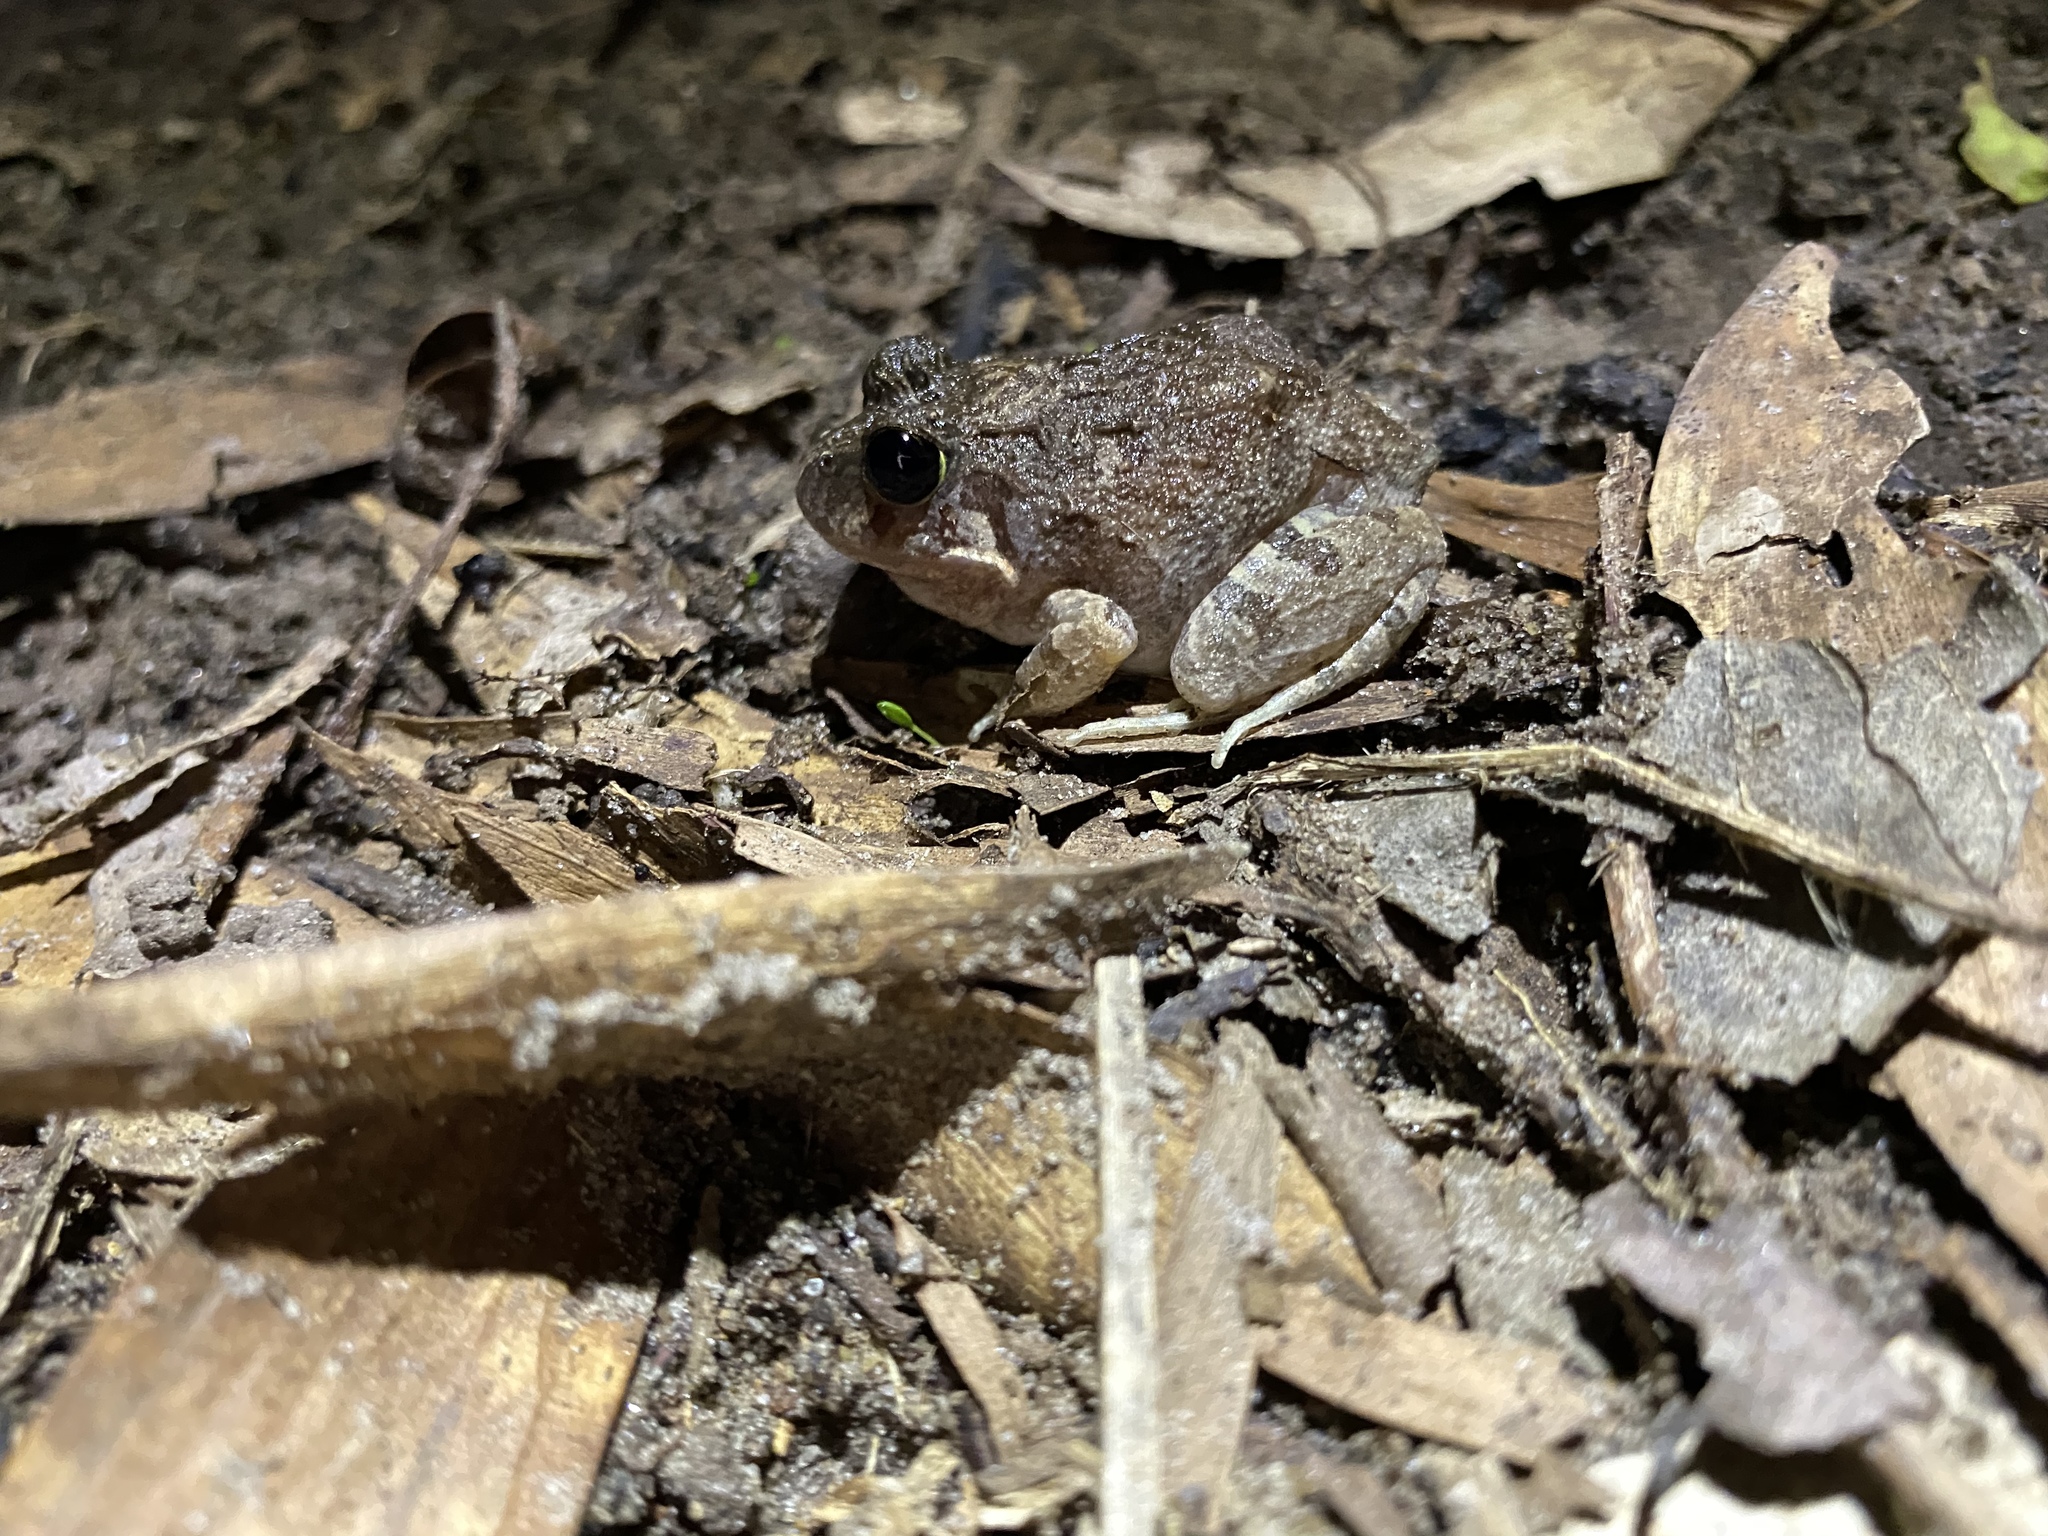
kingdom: Animalia
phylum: Chordata
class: Amphibia
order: Anura
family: Limnodynastidae
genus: Platyplectrum
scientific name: Platyplectrum ornatum
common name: Ornate burrowing frog
